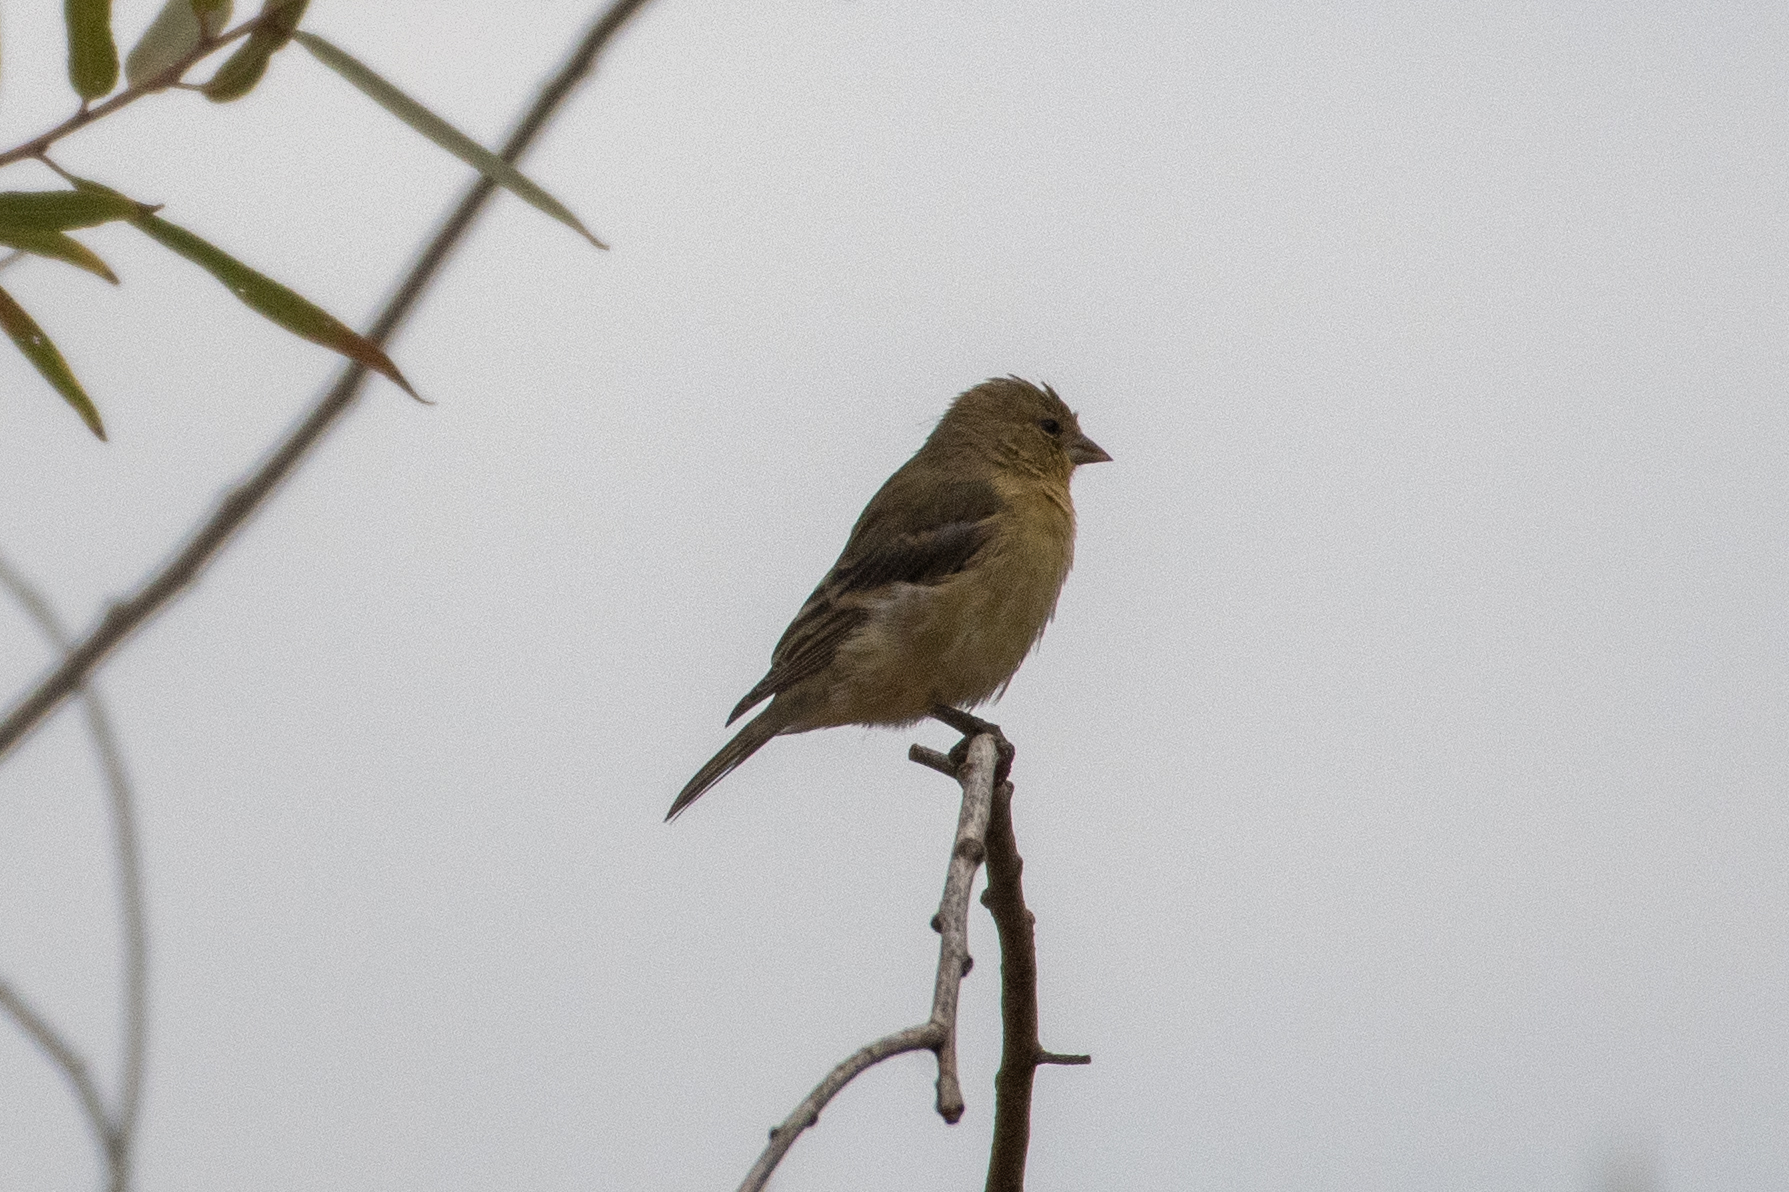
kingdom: Animalia
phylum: Chordata
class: Aves
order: Passeriformes
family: Fringillidae
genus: Spinus
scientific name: Spinus psaltria
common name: Lesser goldfinch
